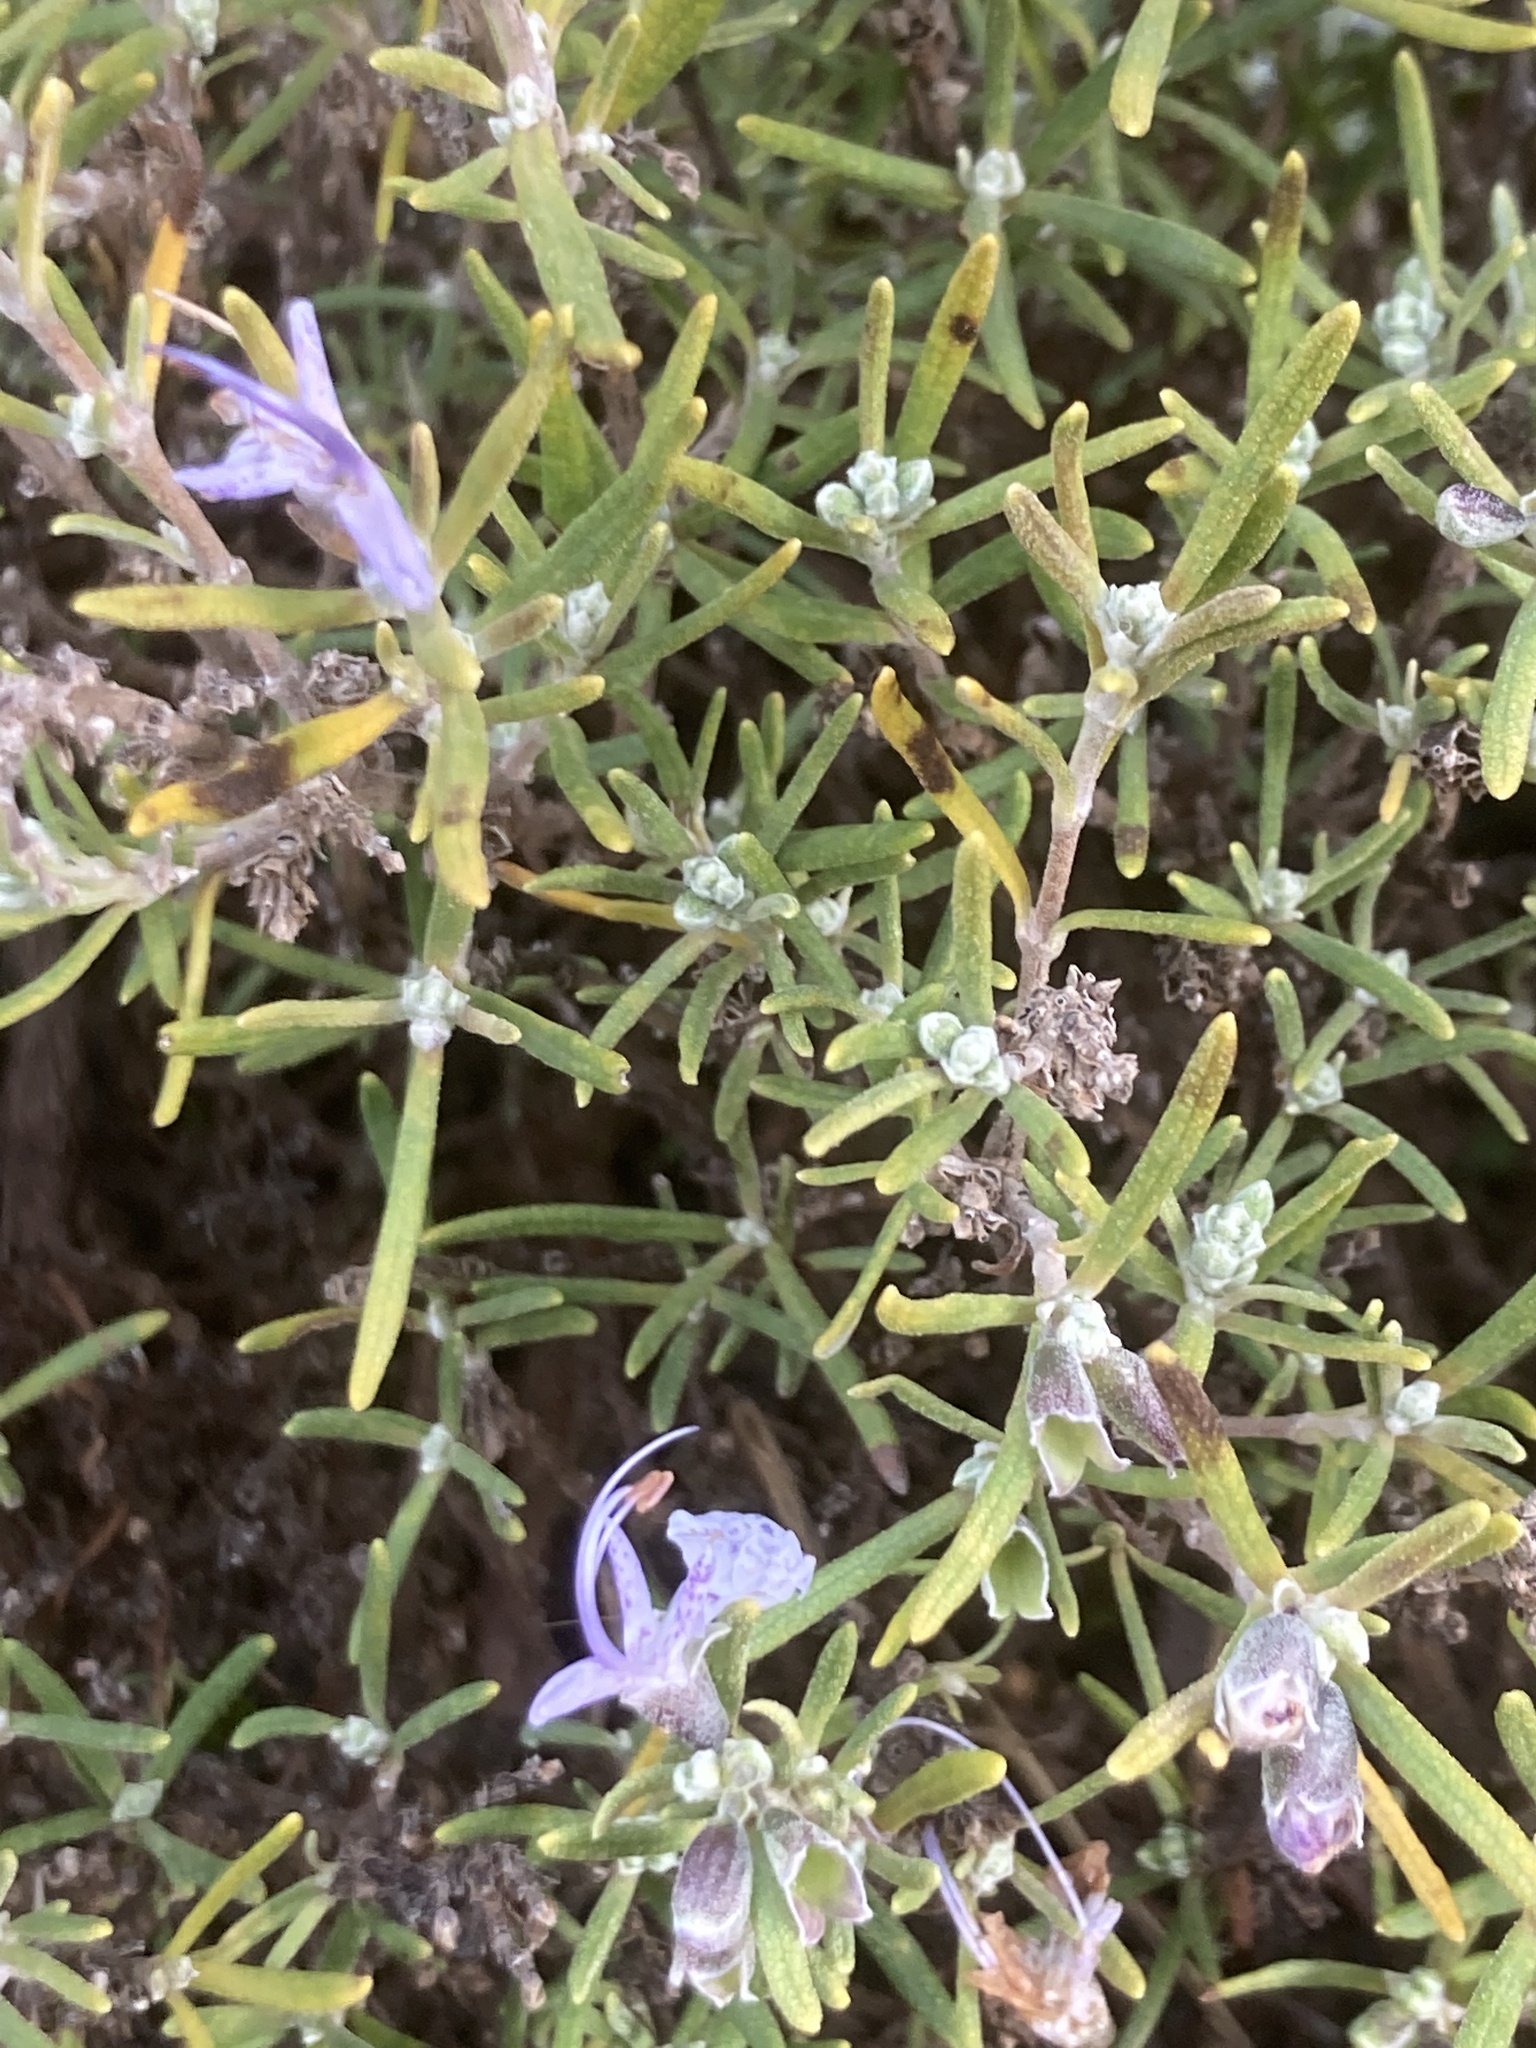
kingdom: Plantae
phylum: Tracheophyta
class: Magnoliopsida
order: Lamiales
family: Lamiaceae
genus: Salvia
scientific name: Salvia rosmarinus
